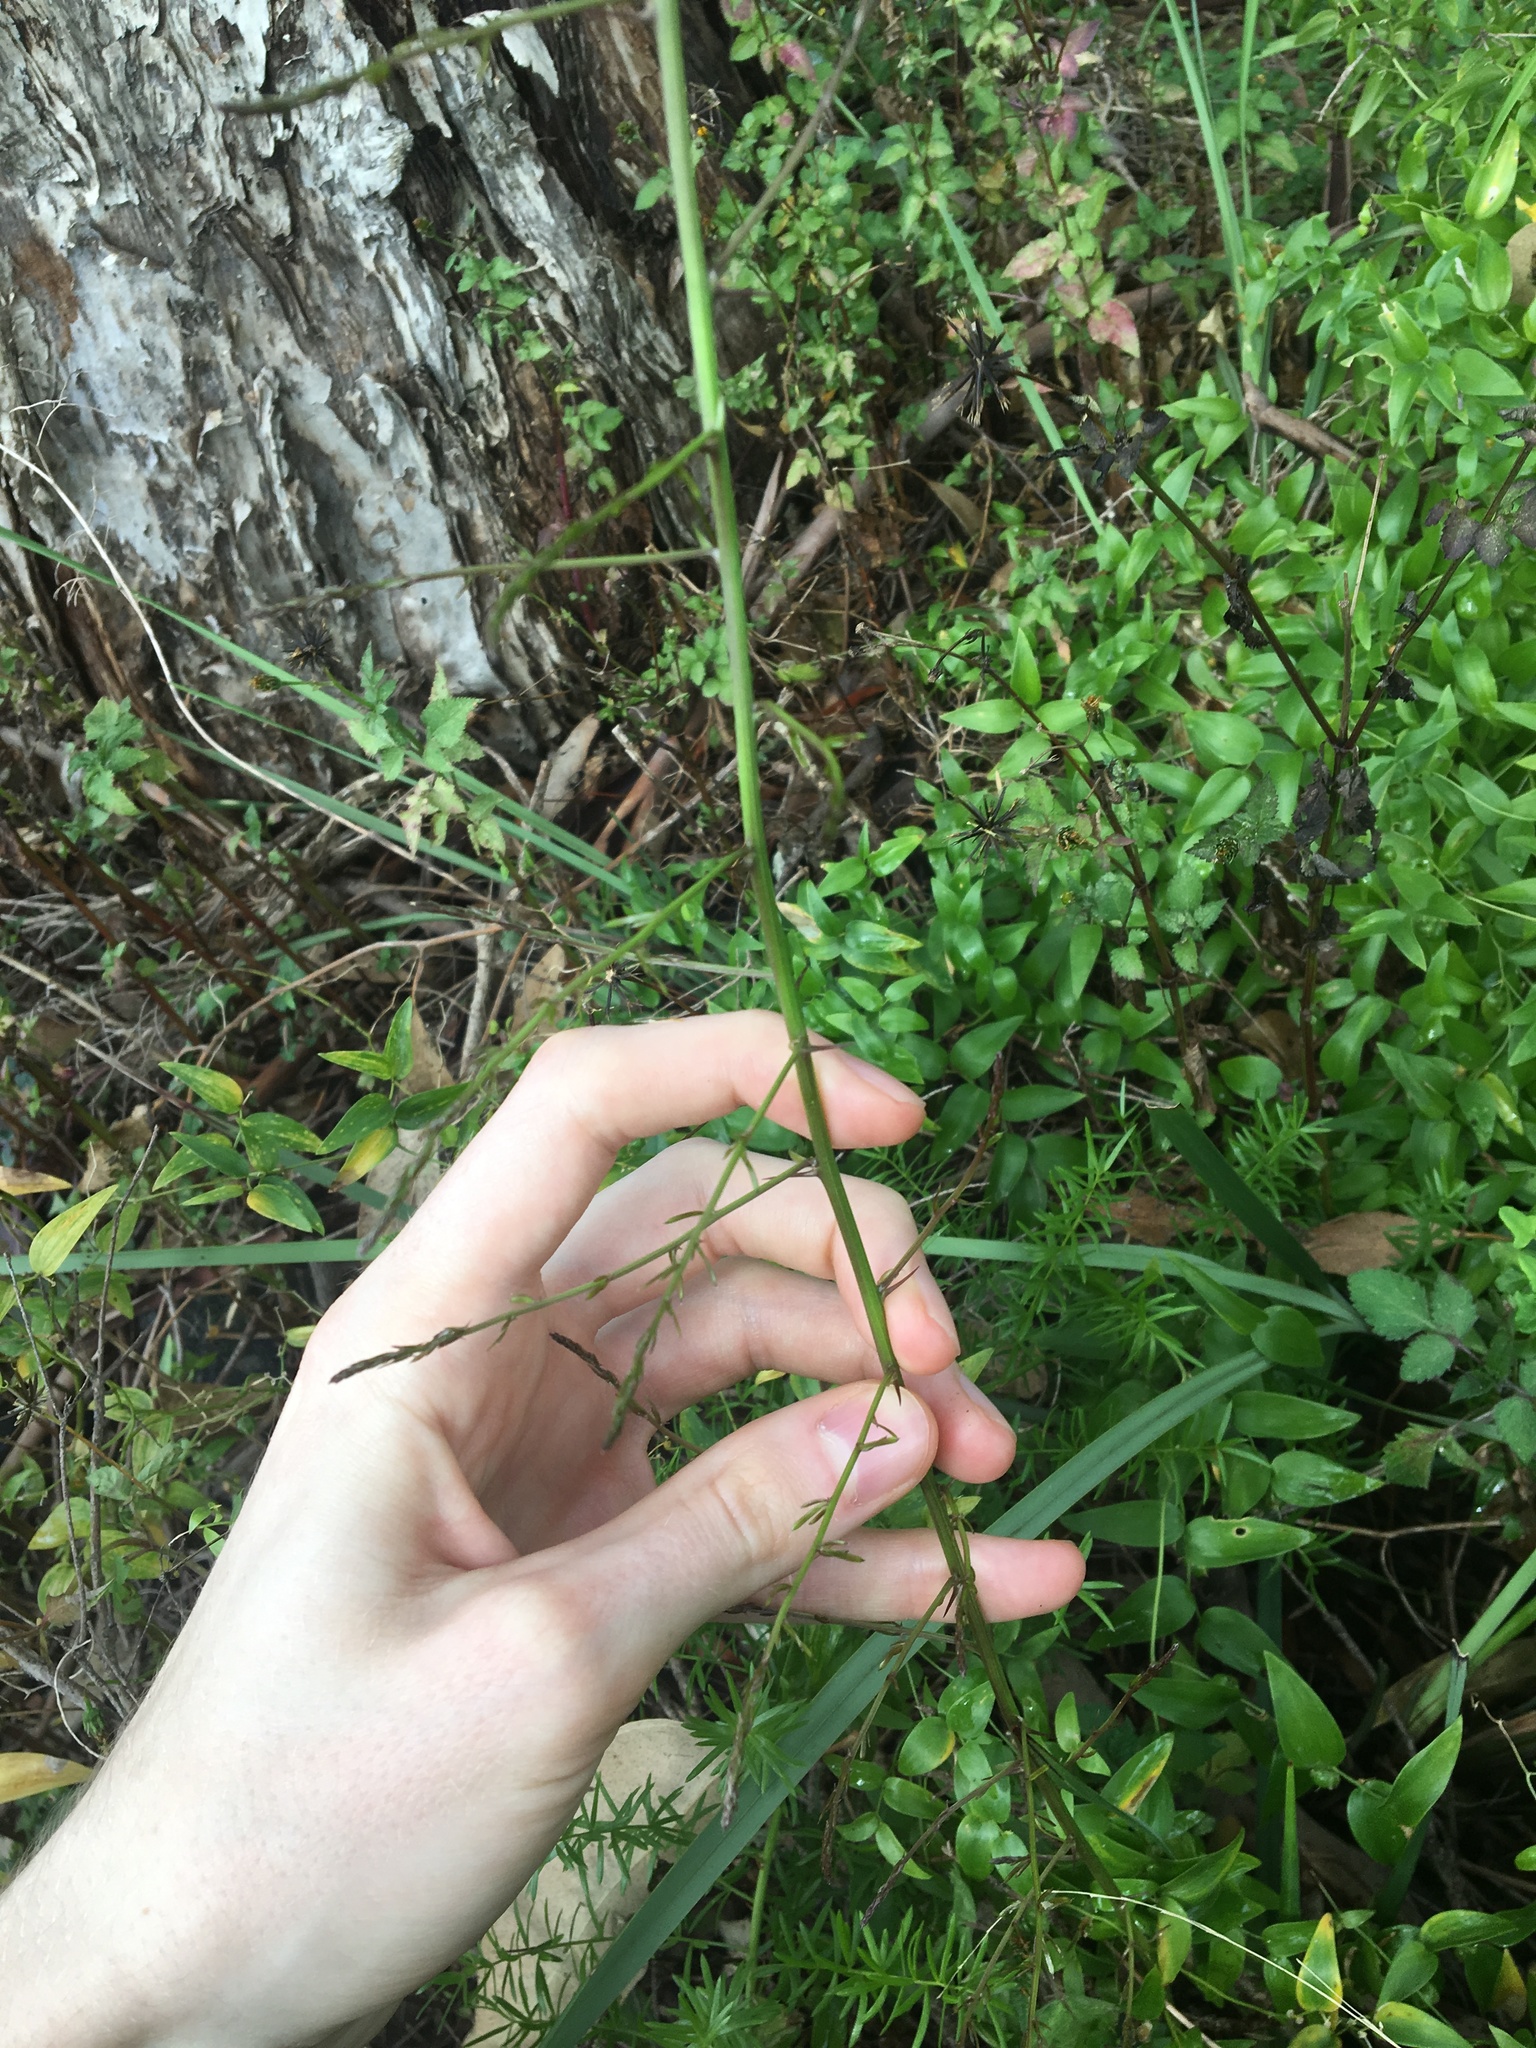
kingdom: Plantae
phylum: Tracheophyta
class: Liliopsida
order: Asparagales
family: Asparagaceae
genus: Asparagus
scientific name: Asparagus aethiopicus
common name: Sprenger's asparagus fern
